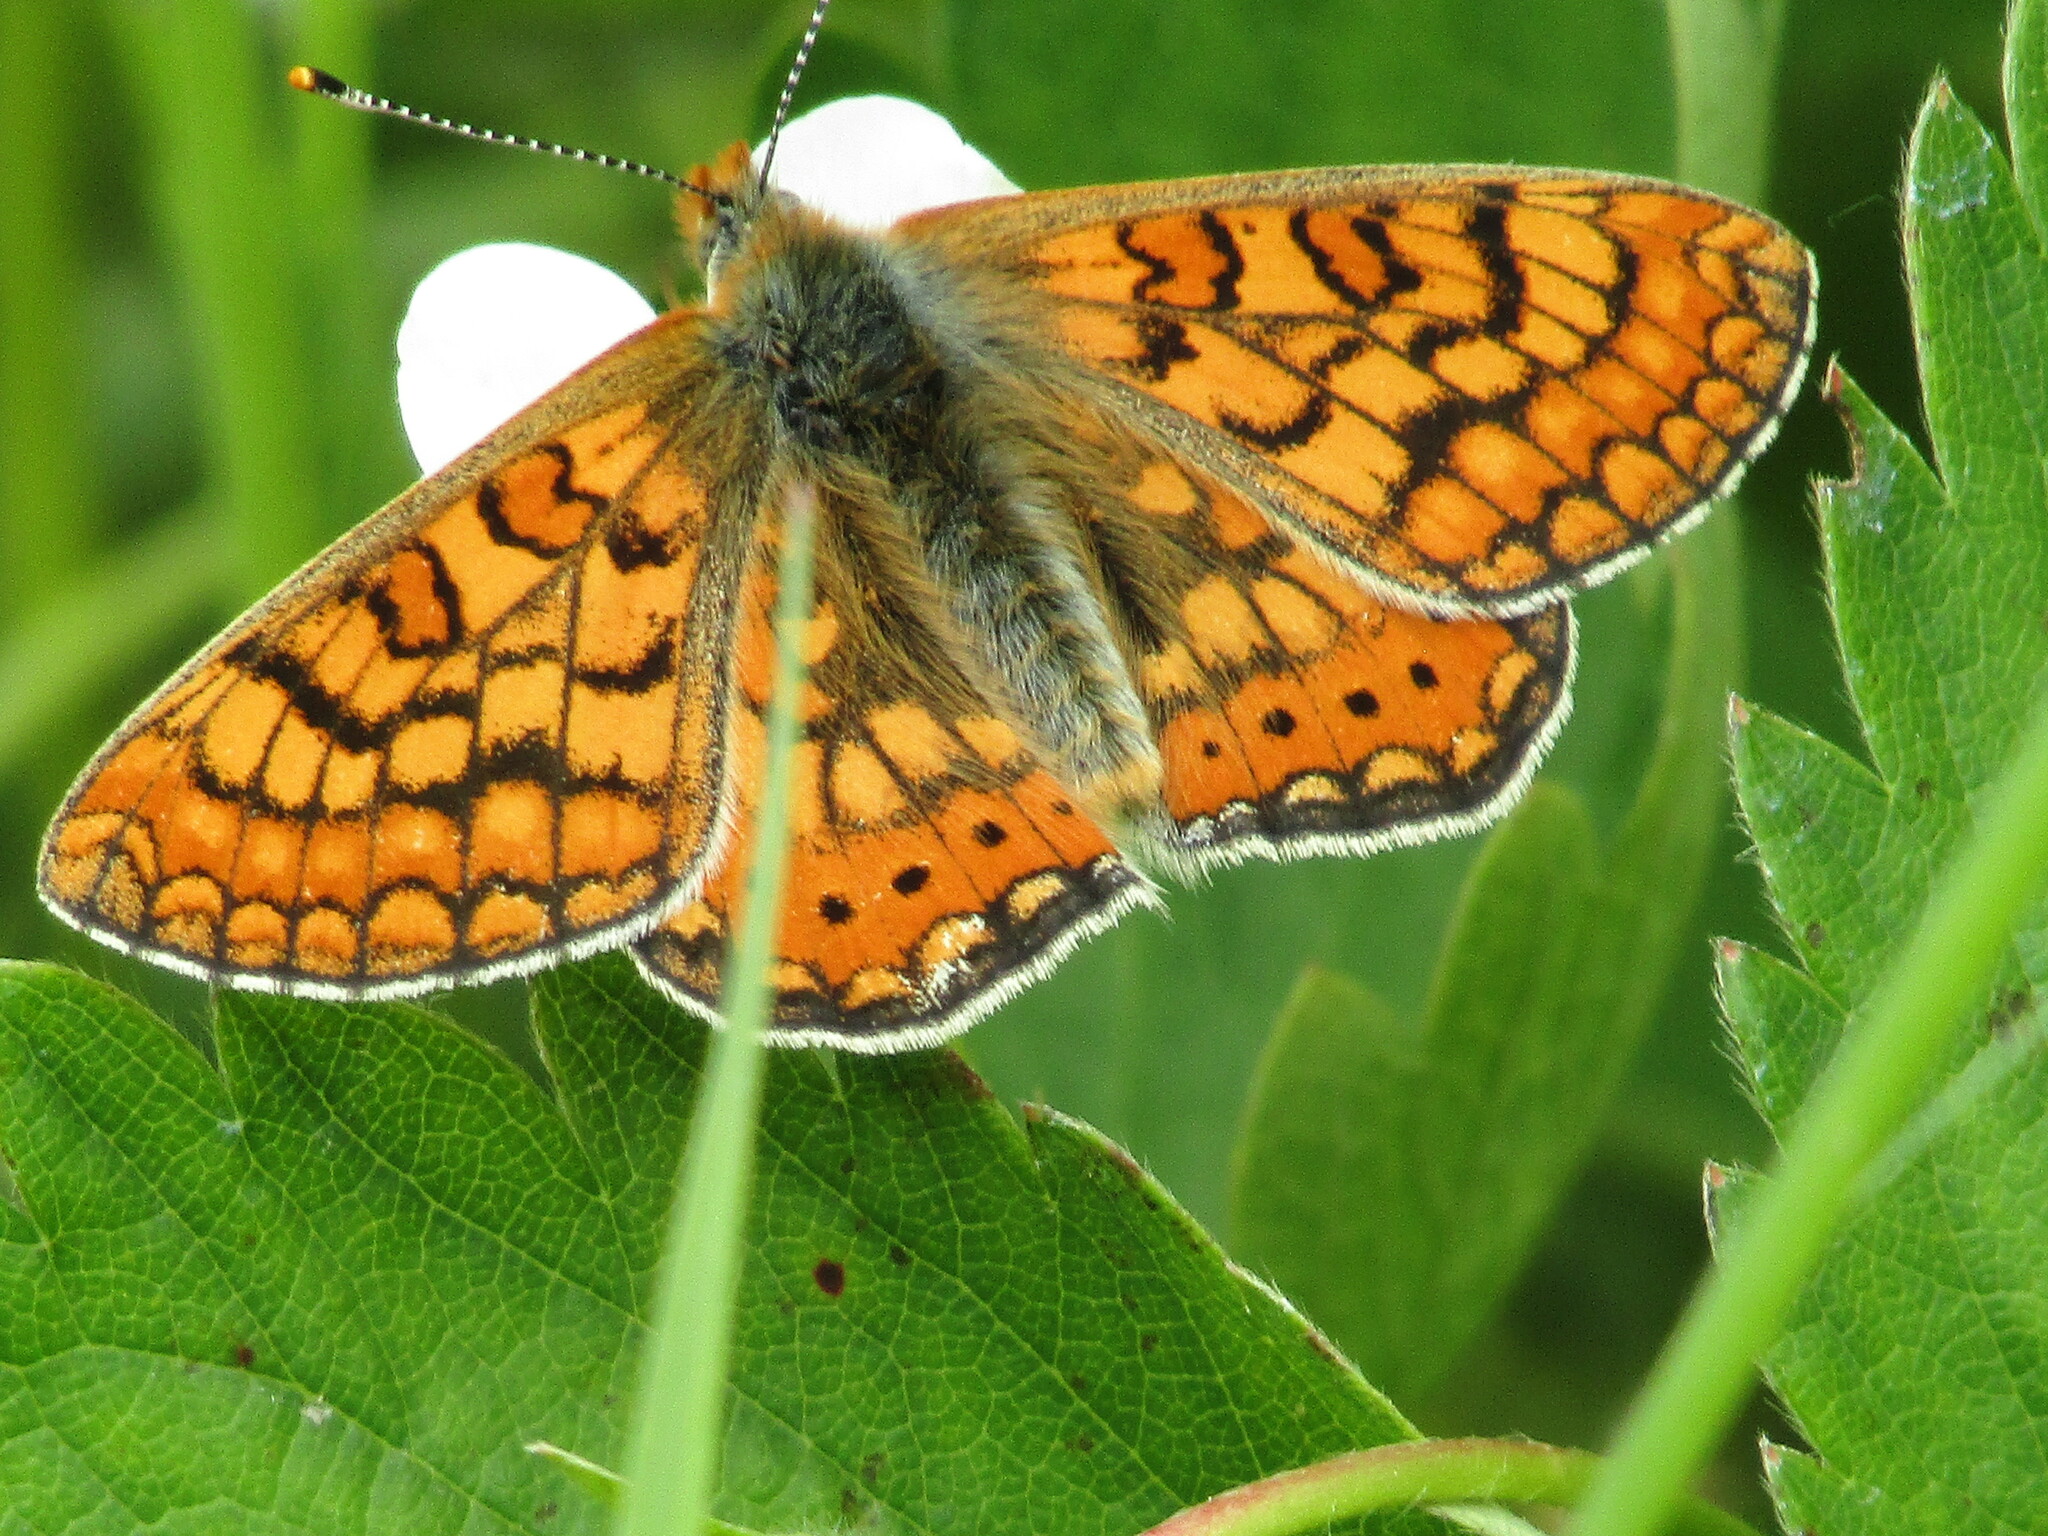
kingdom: Animalia
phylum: Arthropoda
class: Insecta
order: Lepidoptera
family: Nymphalidae
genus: Euphydryas
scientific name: Euphydryas aurinia
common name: Marsh fritillary
